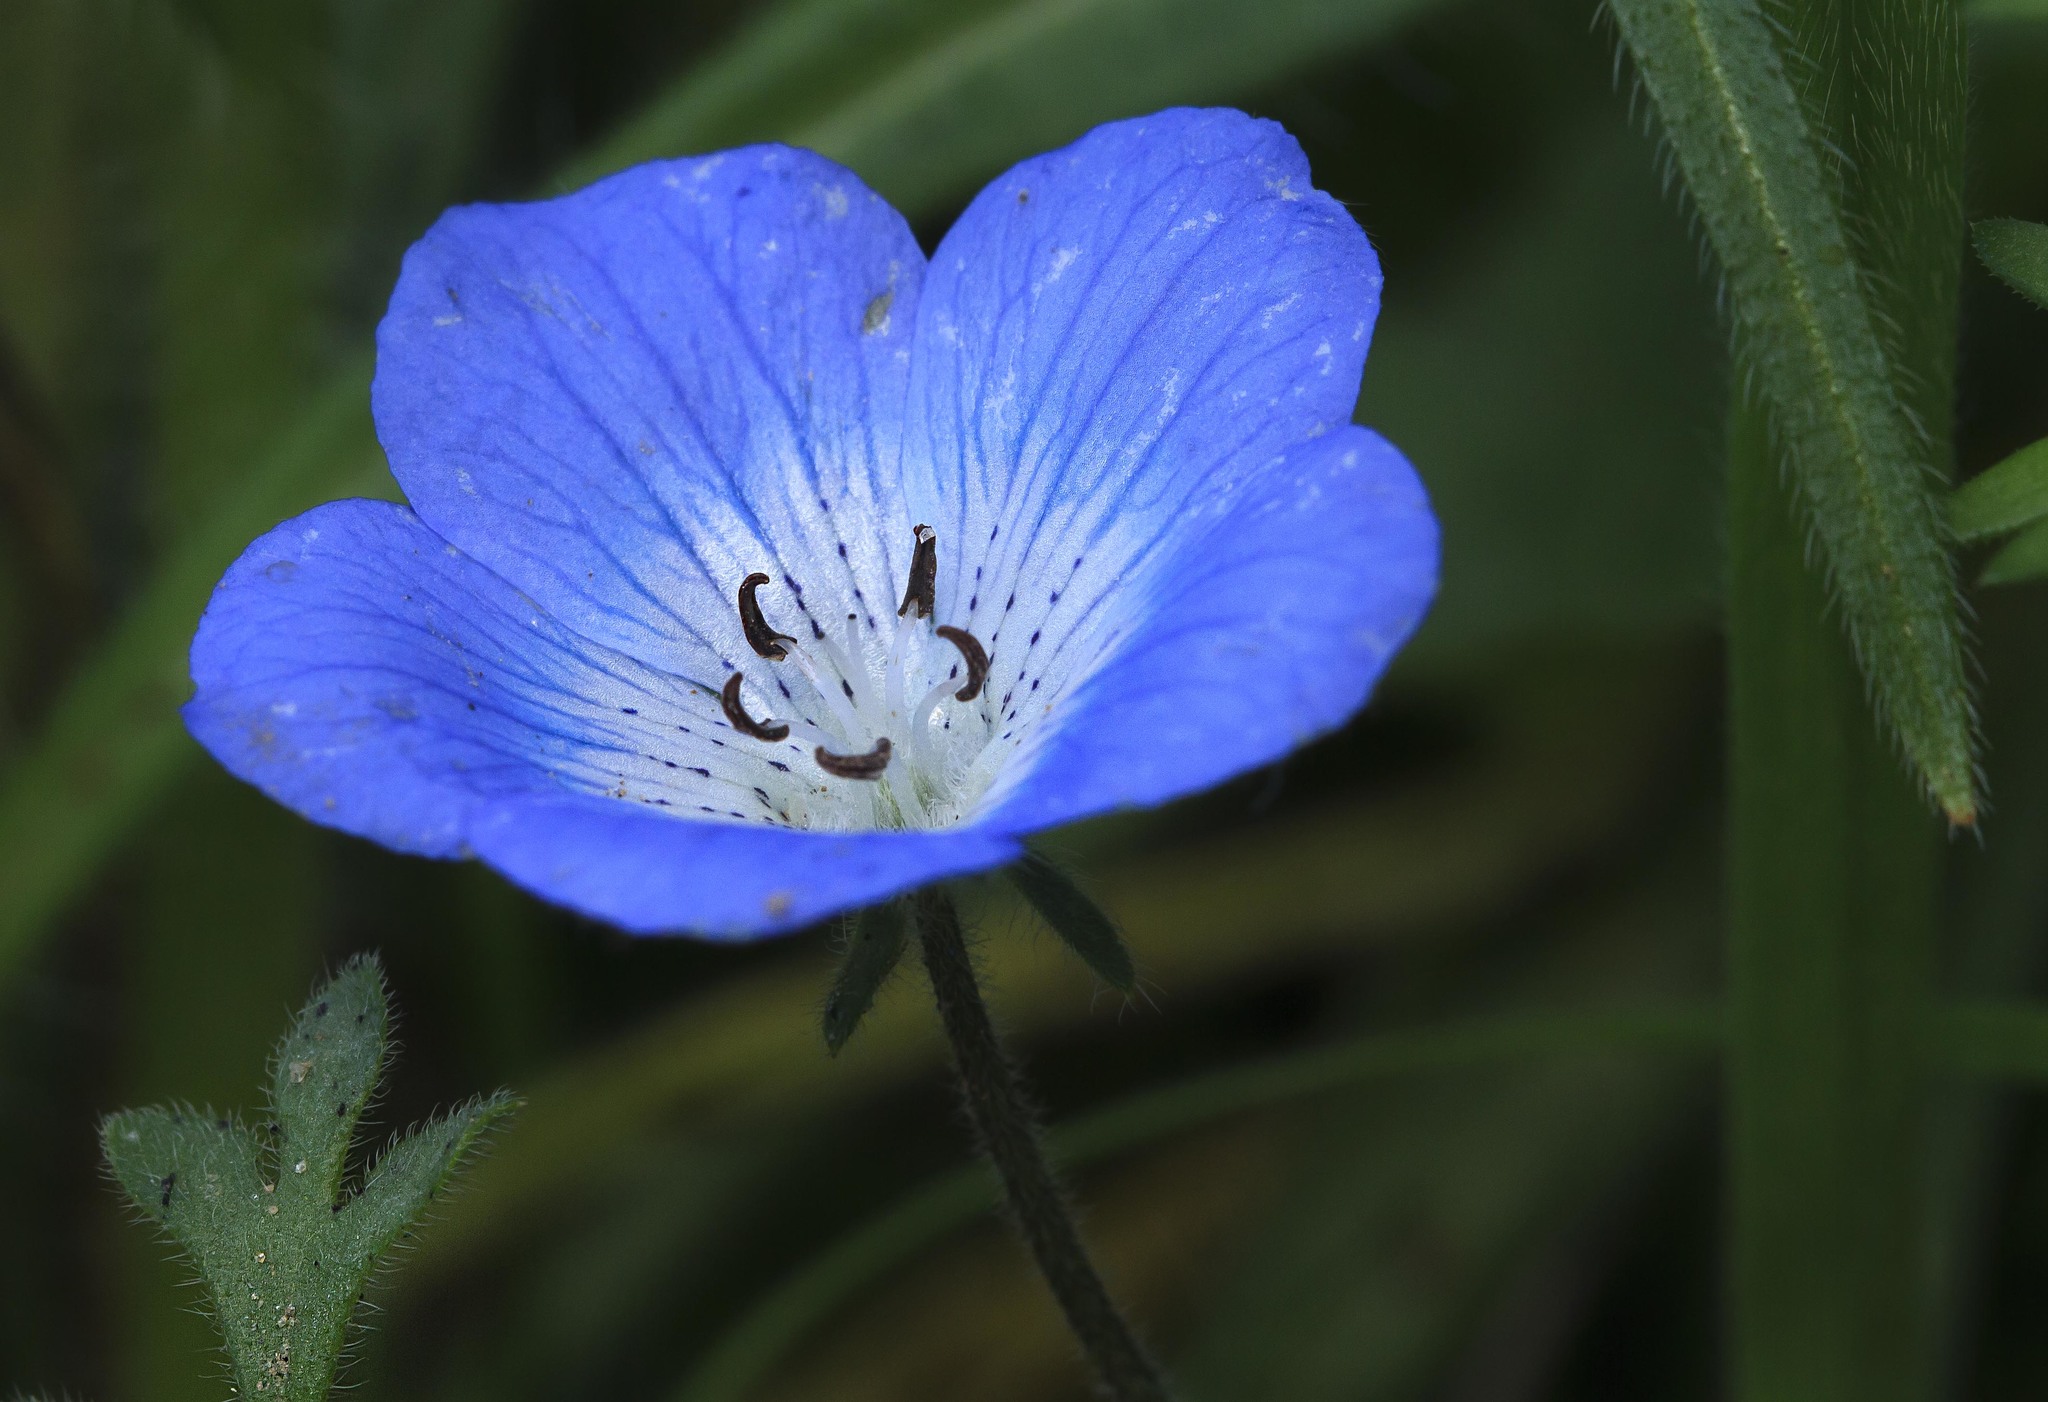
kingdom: Plantae
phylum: Tracheophyta
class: Magnoliopsida
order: Boraginales
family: Hydrophyllaceae
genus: Nemophila
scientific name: Nemophila menziesii
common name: Baby's-blue-eyes
